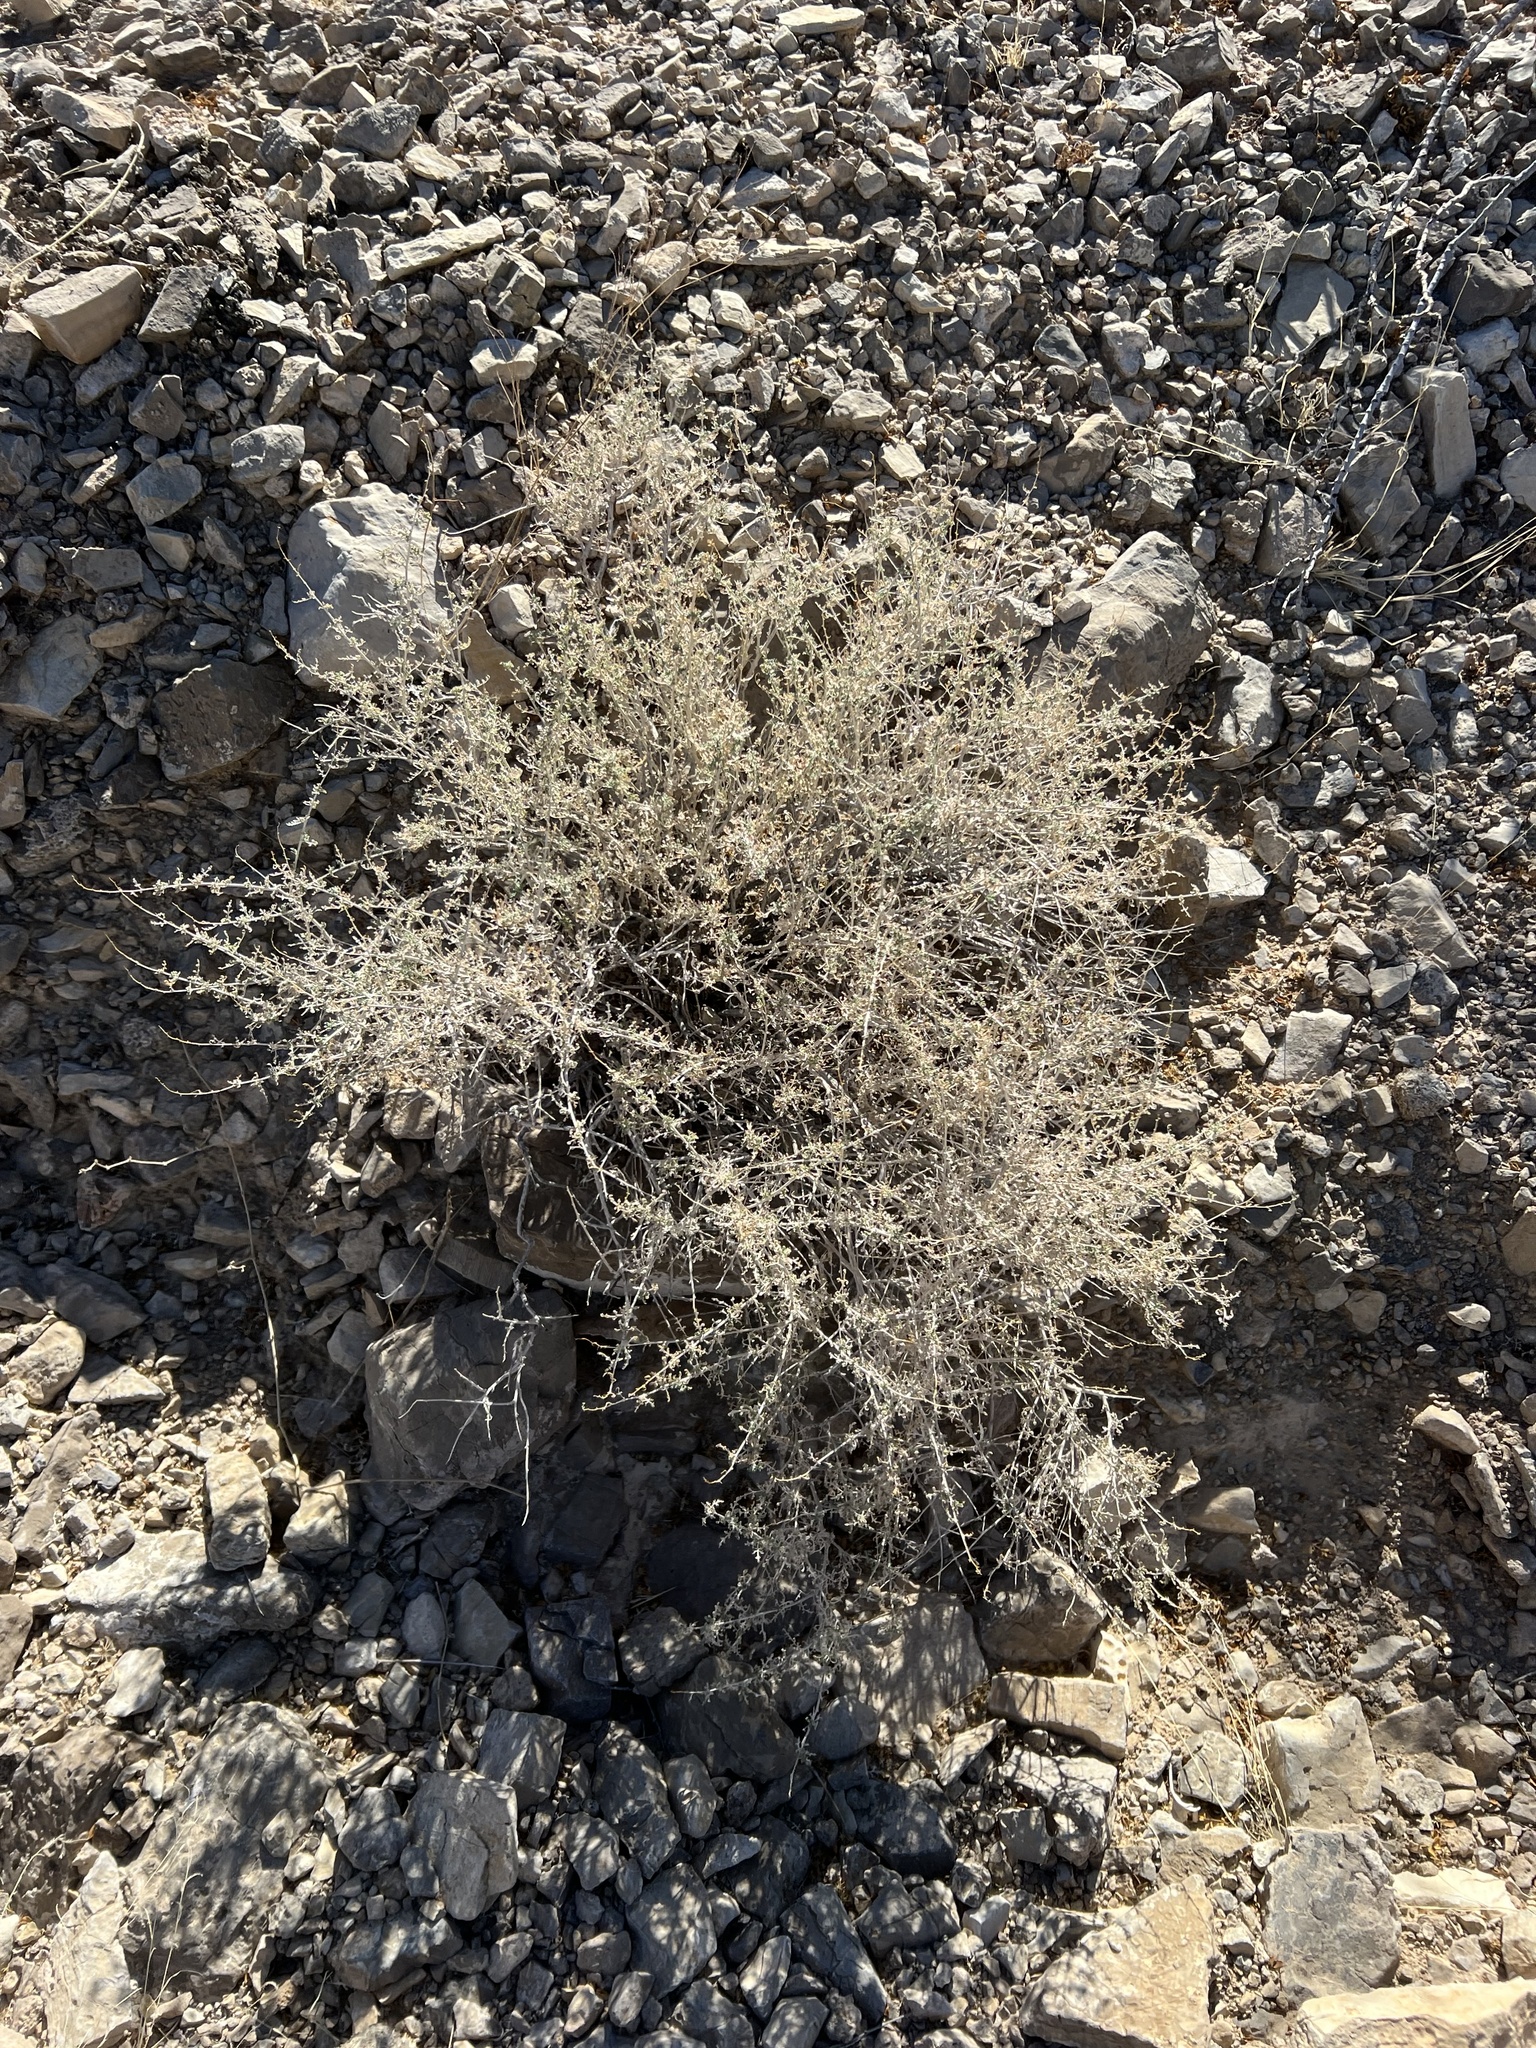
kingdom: Plantae
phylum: Tracheophyta
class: Magnoliopsida
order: Asterales
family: Asteraceae
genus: Ambrosia
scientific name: Ambrosia dumosa
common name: Bur-sage
